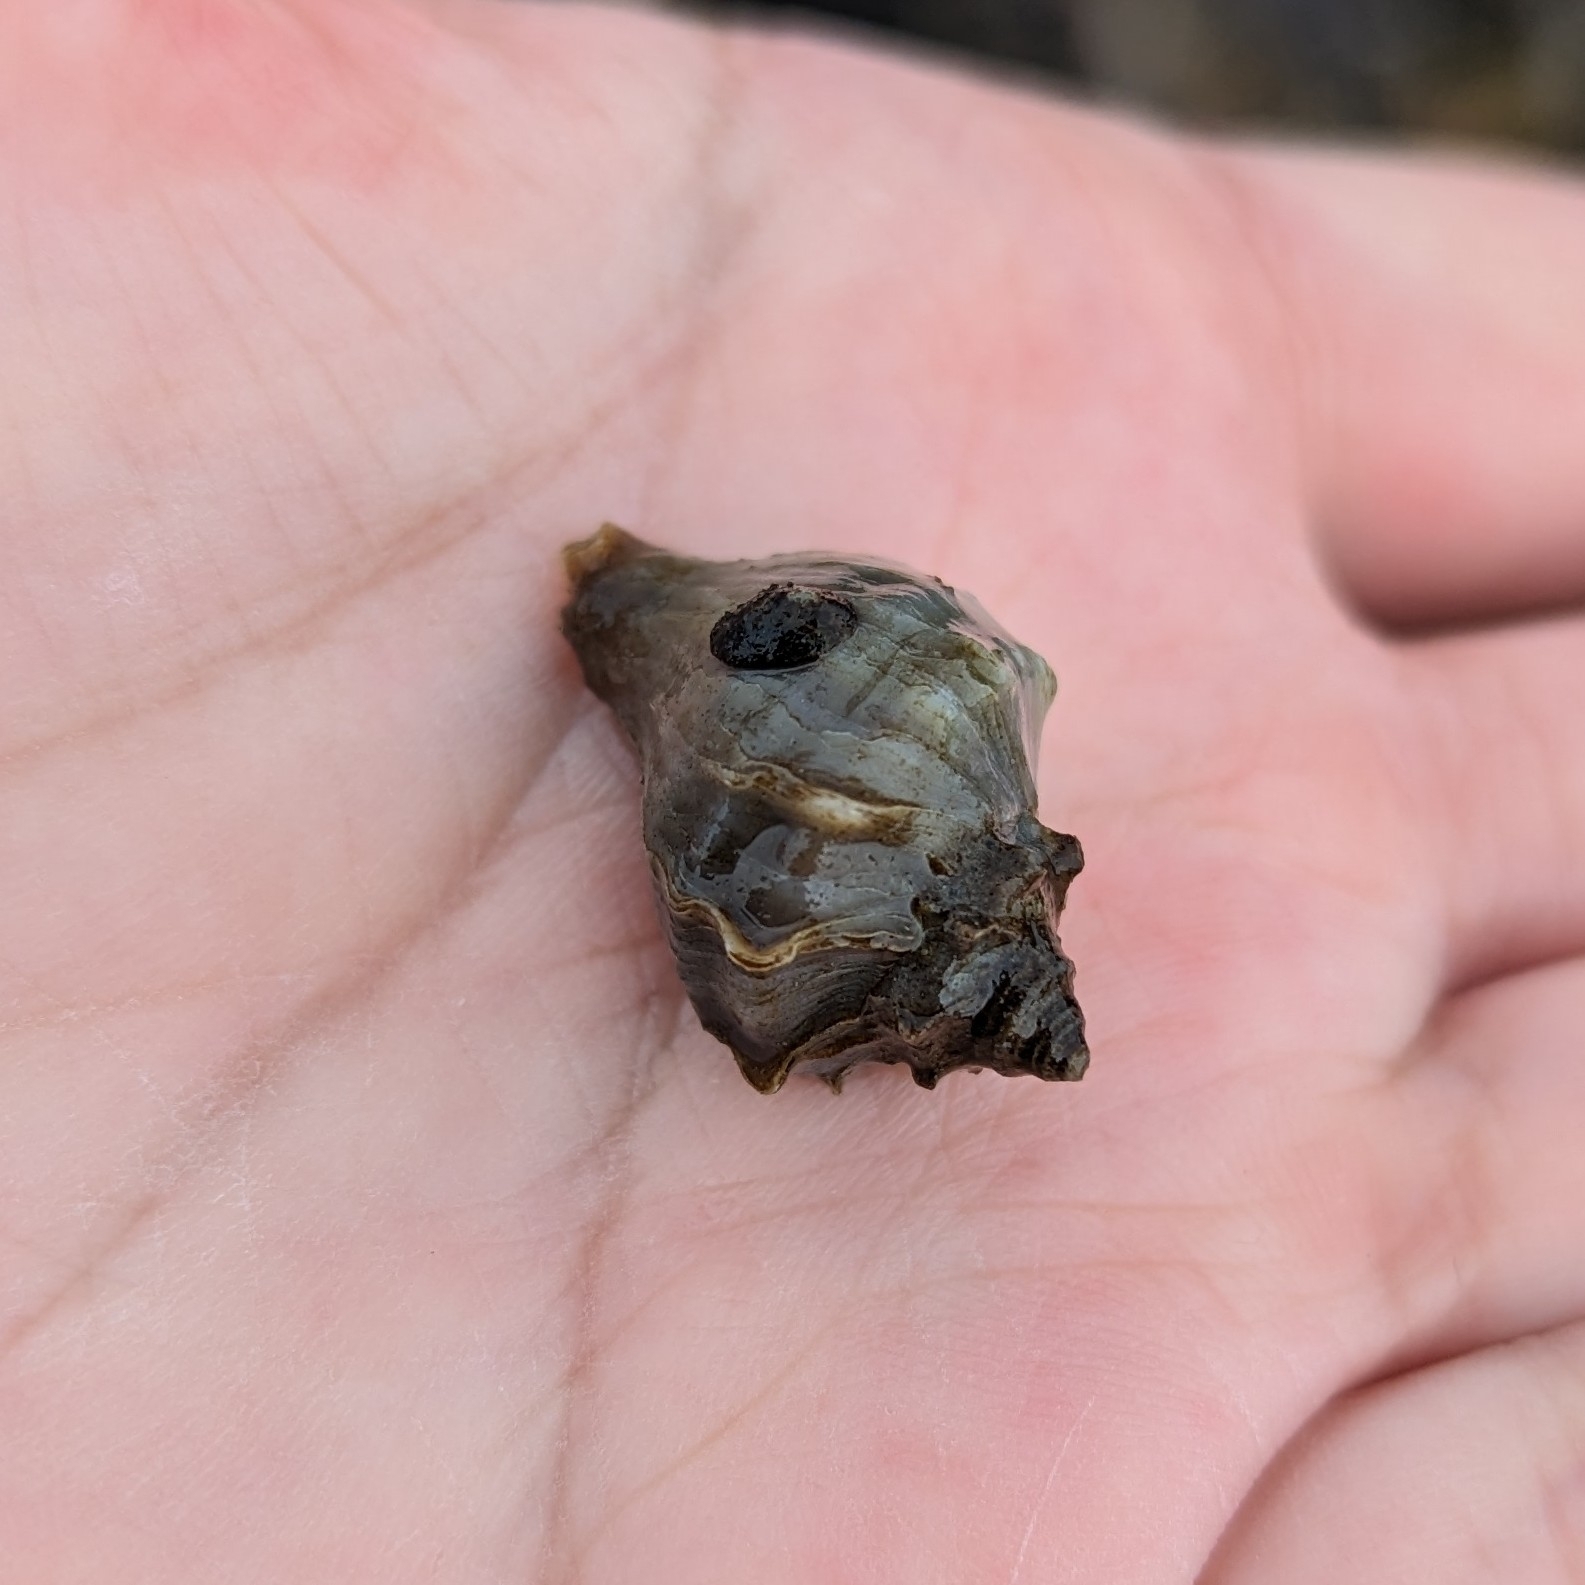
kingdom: Animalia
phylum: Mollusca
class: Gastropoda
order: Neogastropoda
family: Muricidae
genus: Nucella
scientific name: Nucella lamellosa
